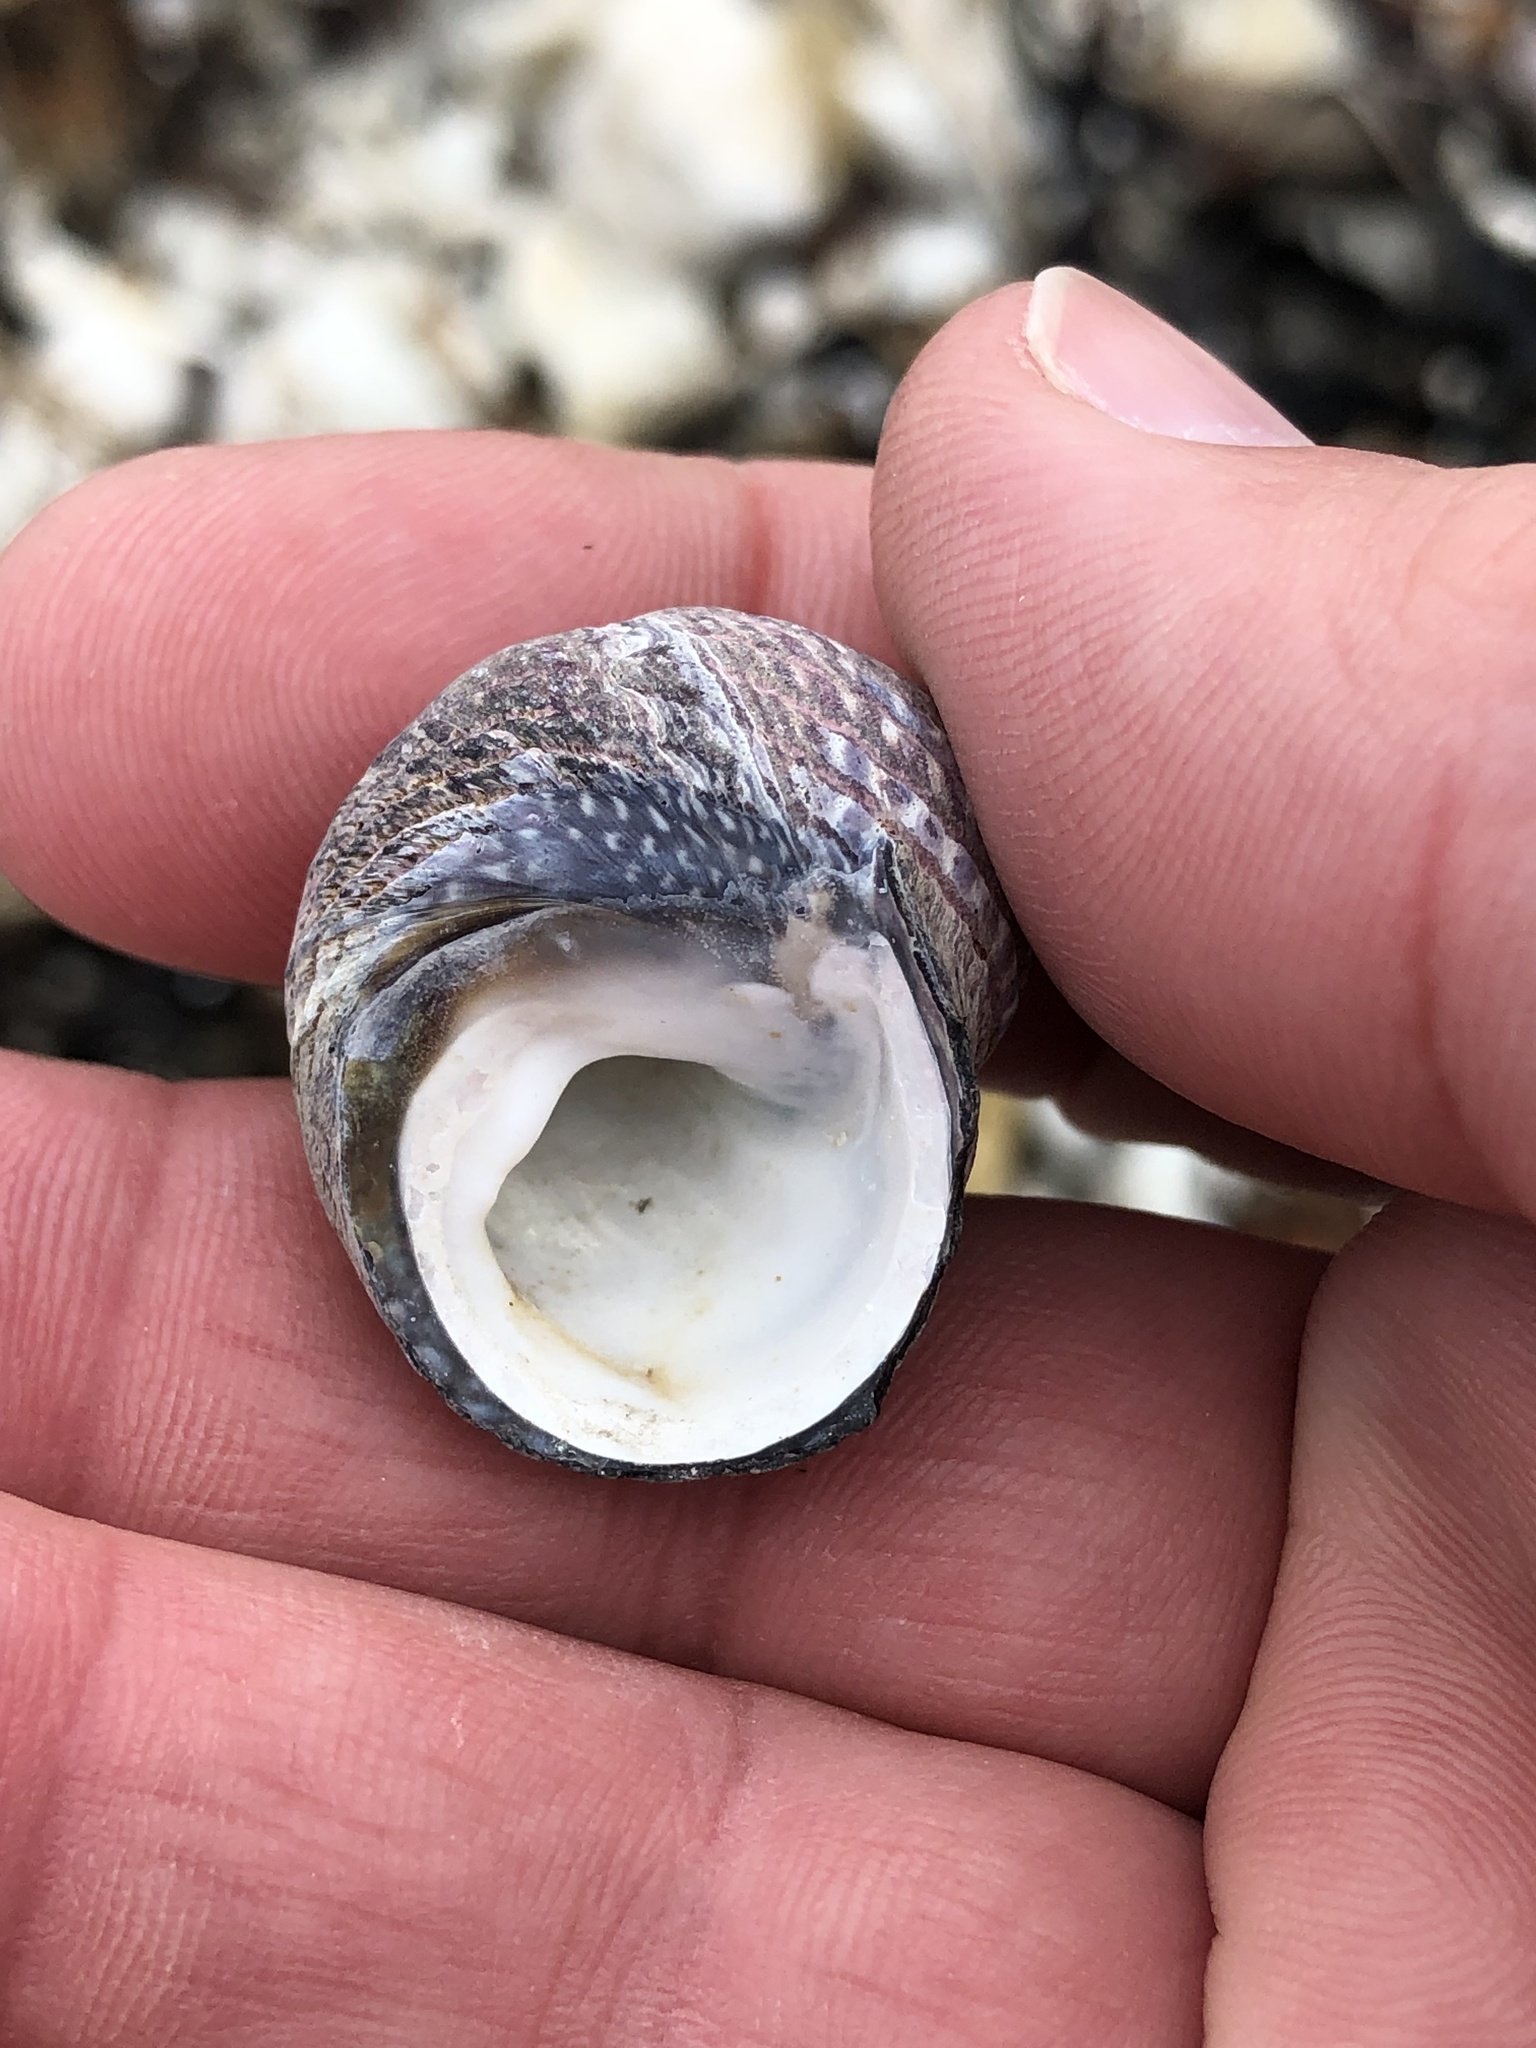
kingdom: Animalia
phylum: Mollusca
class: Gastropoda
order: Trochida
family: Trochidae
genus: Diloma
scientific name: Diloma aethiops
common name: Scorched monodont
